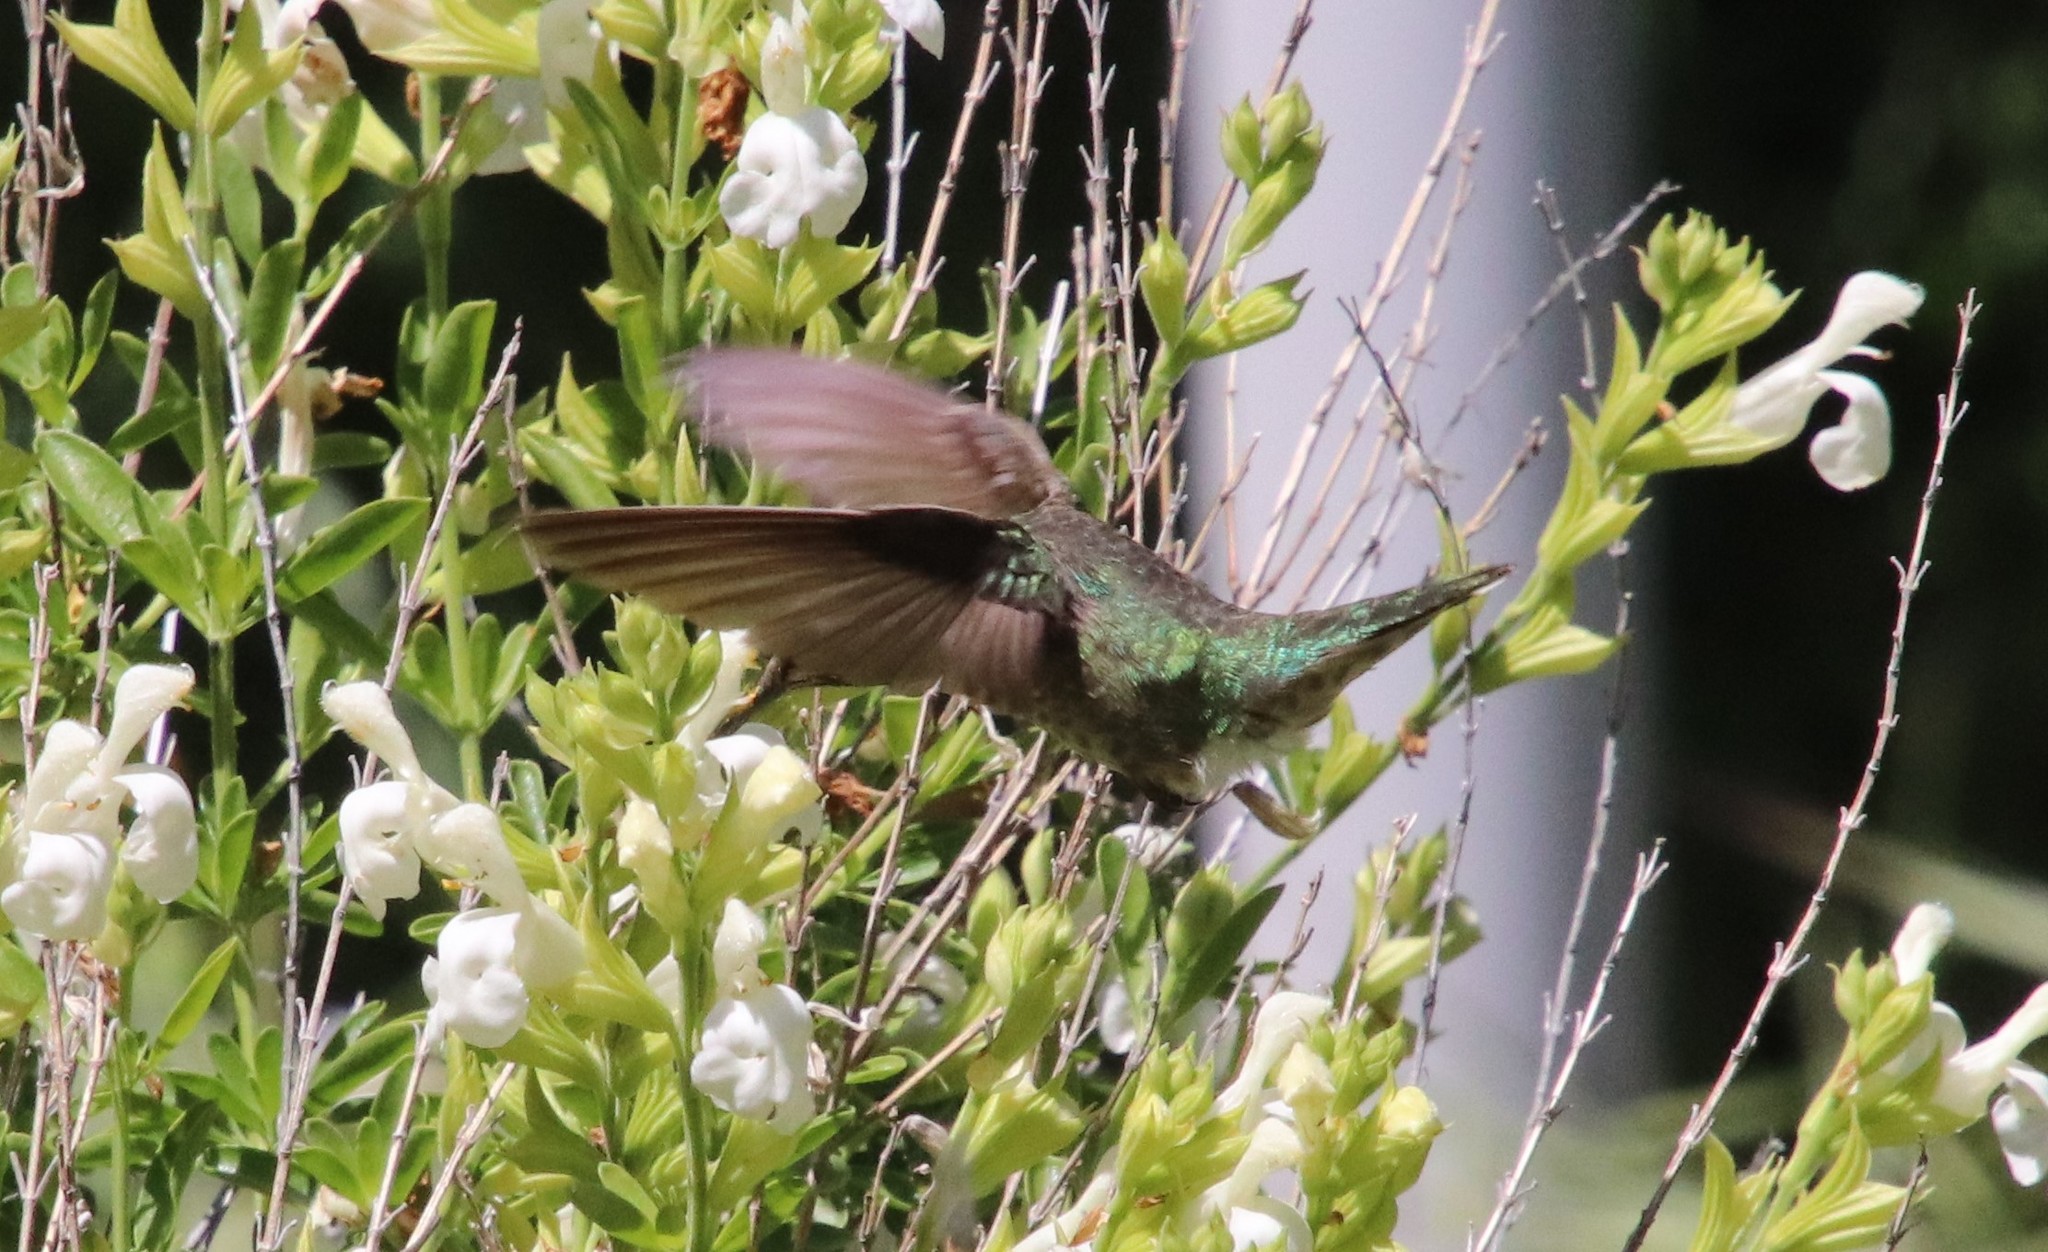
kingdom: Animalia
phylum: Chordata
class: Aves
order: Apodiformes
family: Trochilidae
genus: Calypte
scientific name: Calypte anna
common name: Anna's hummingbird
